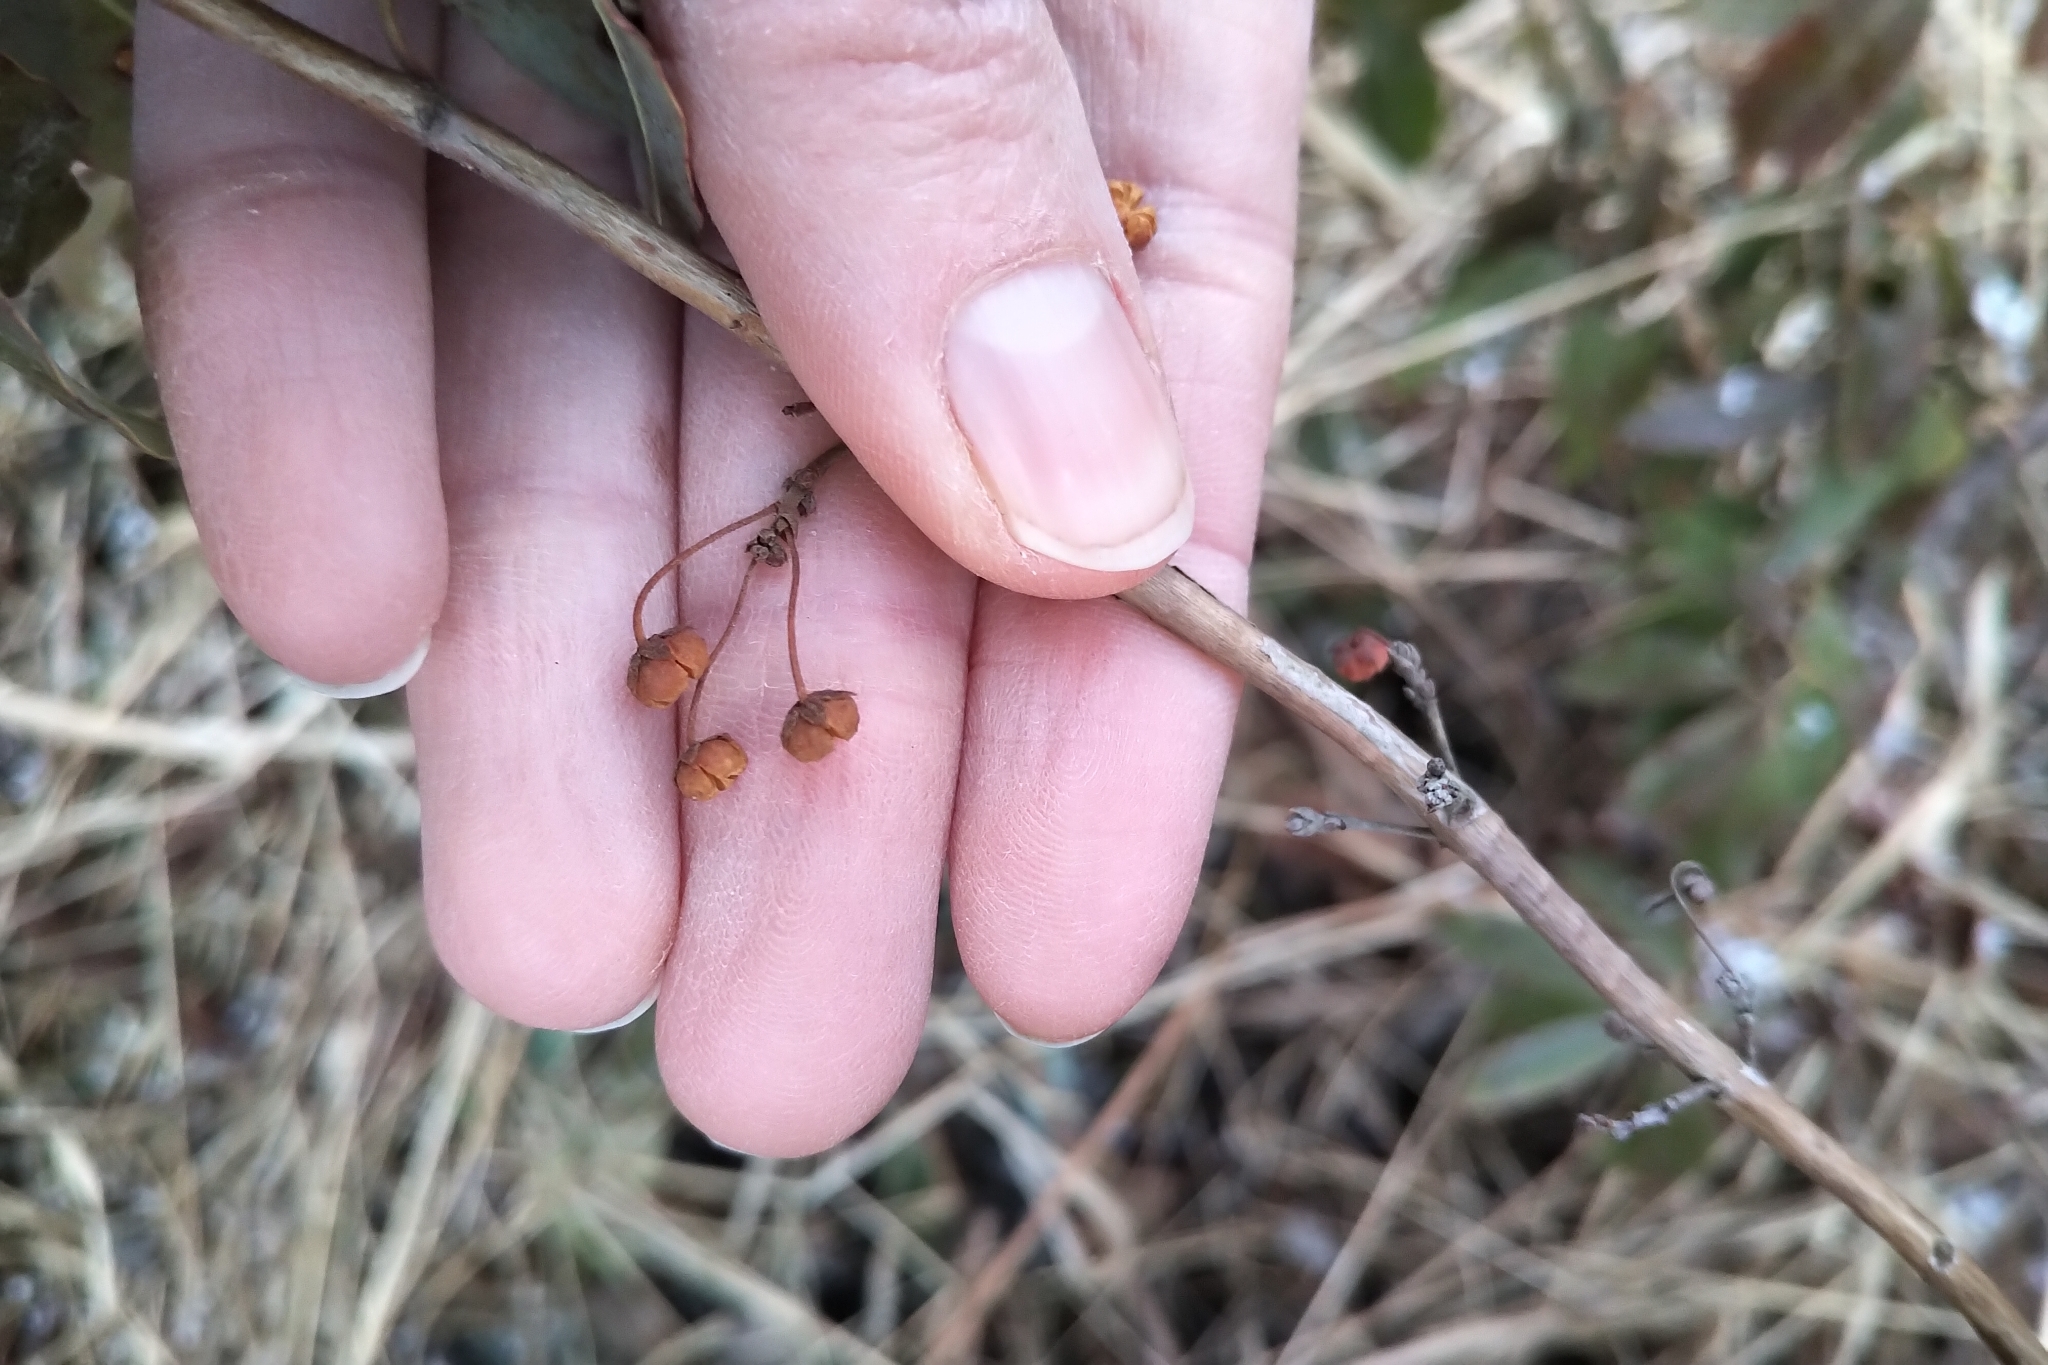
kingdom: Plantae
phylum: Tracheophyta
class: Magnoliopsida
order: Ericales
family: Ericaceae
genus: Kalmia
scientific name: Kalmia angustifolia
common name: Sheep-laurel
